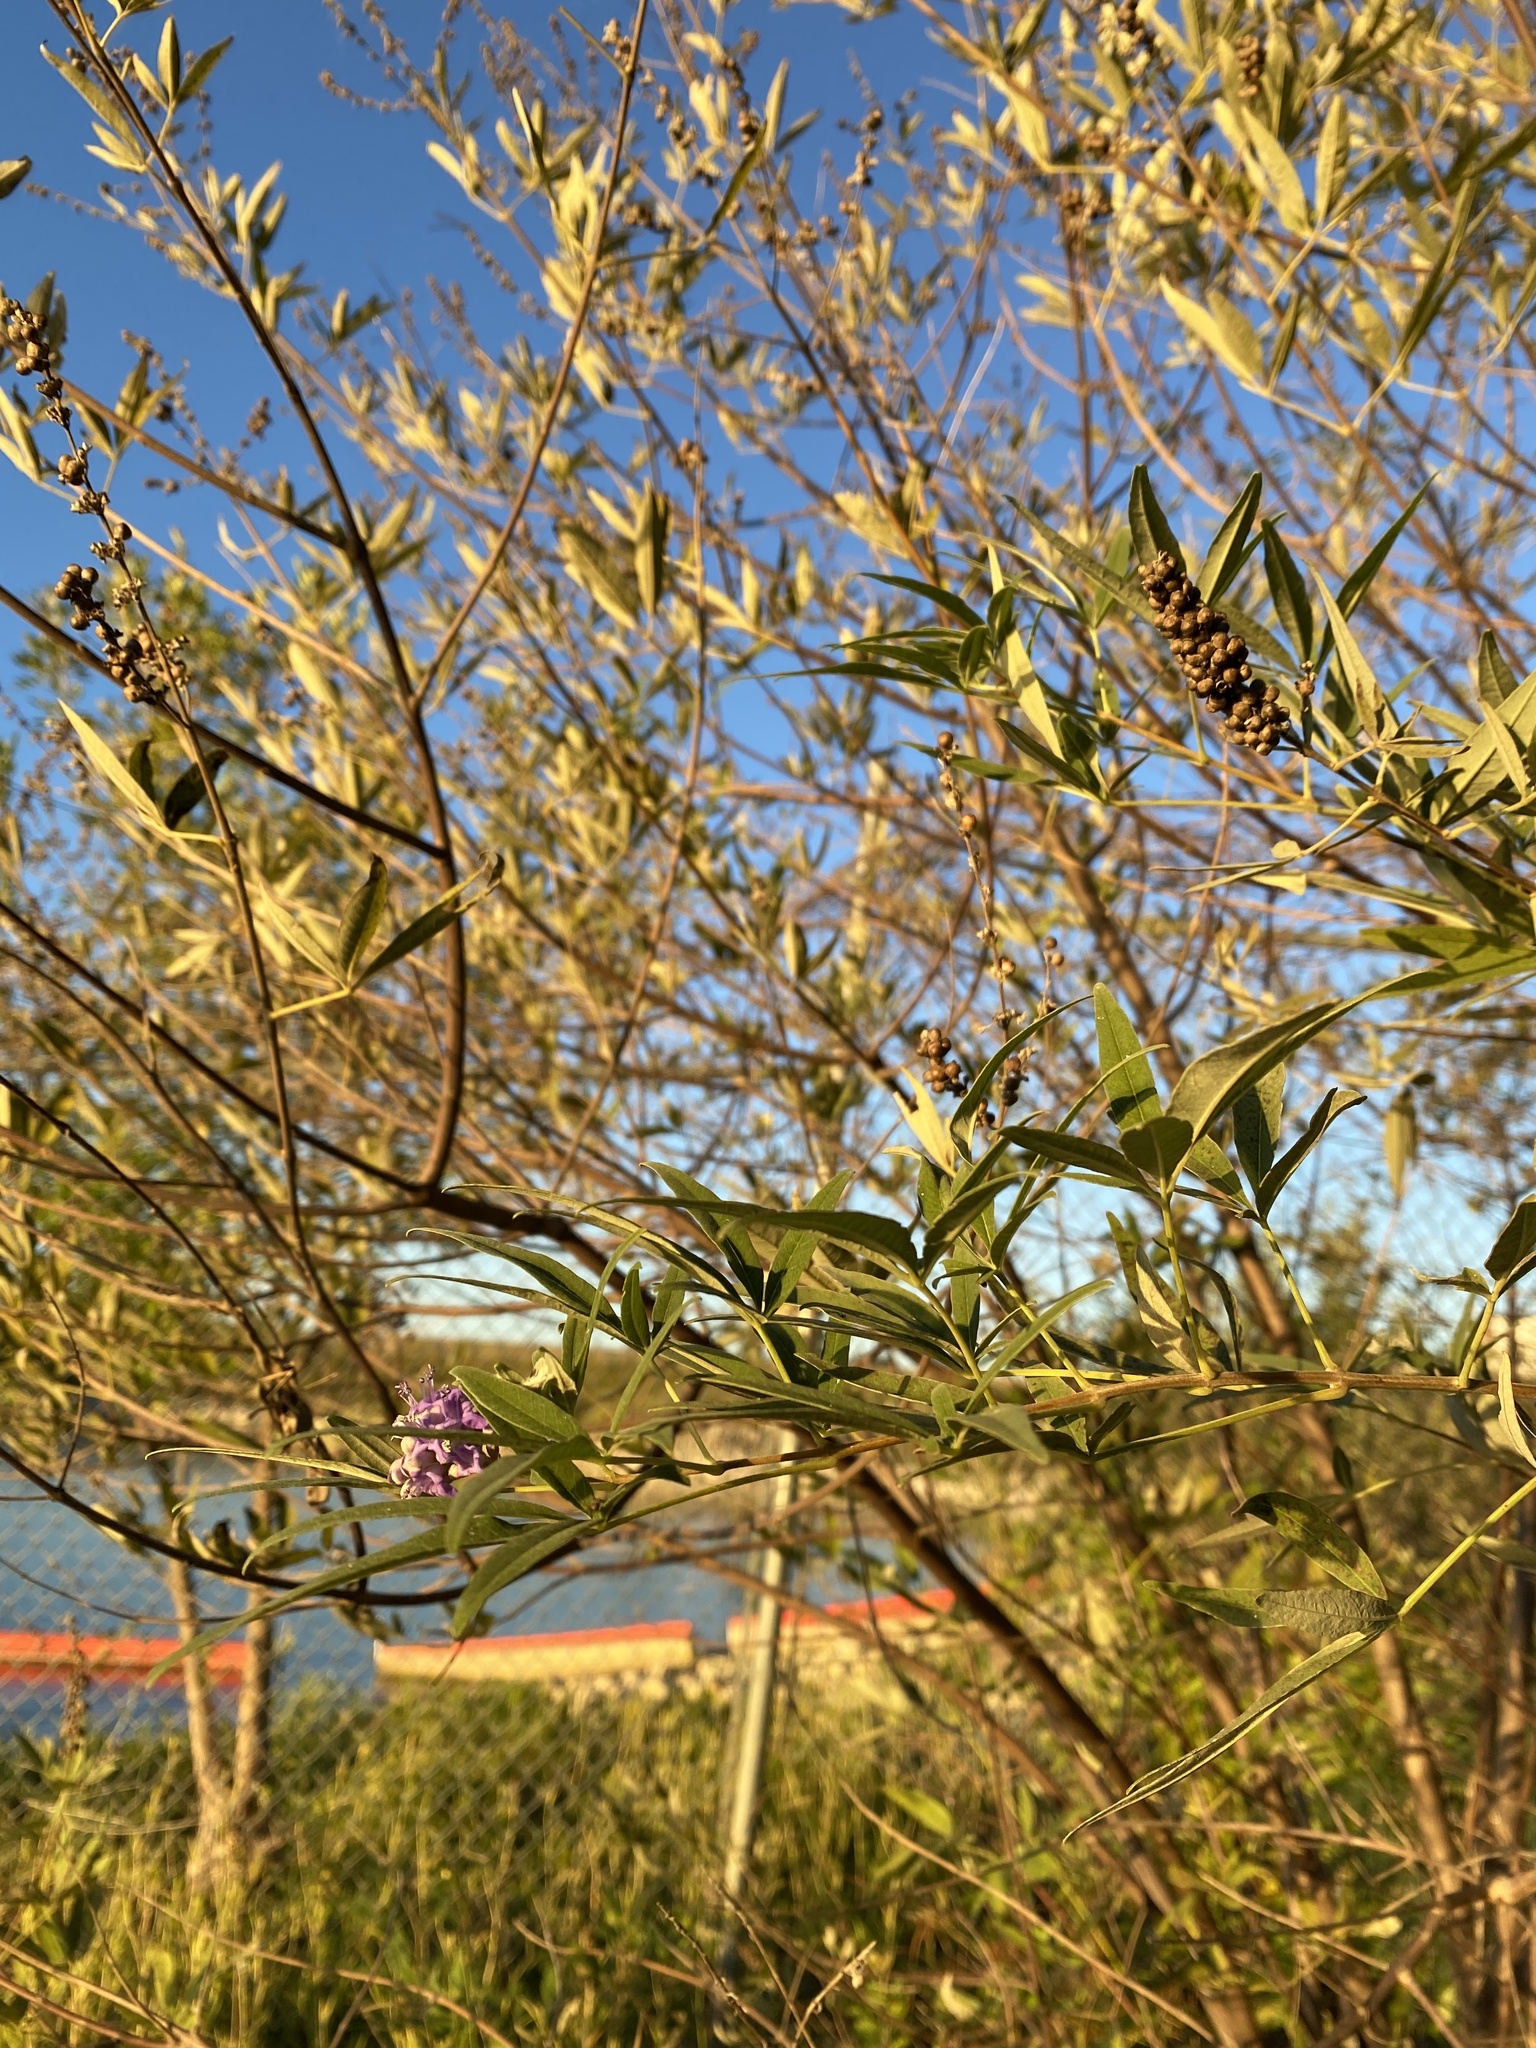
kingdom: Plantae
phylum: Tracheophyta
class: Magnoliopsida
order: Lamiales
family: Lamiaceae
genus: Vitex
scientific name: Vitex agnus-castus
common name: Chasteberry
